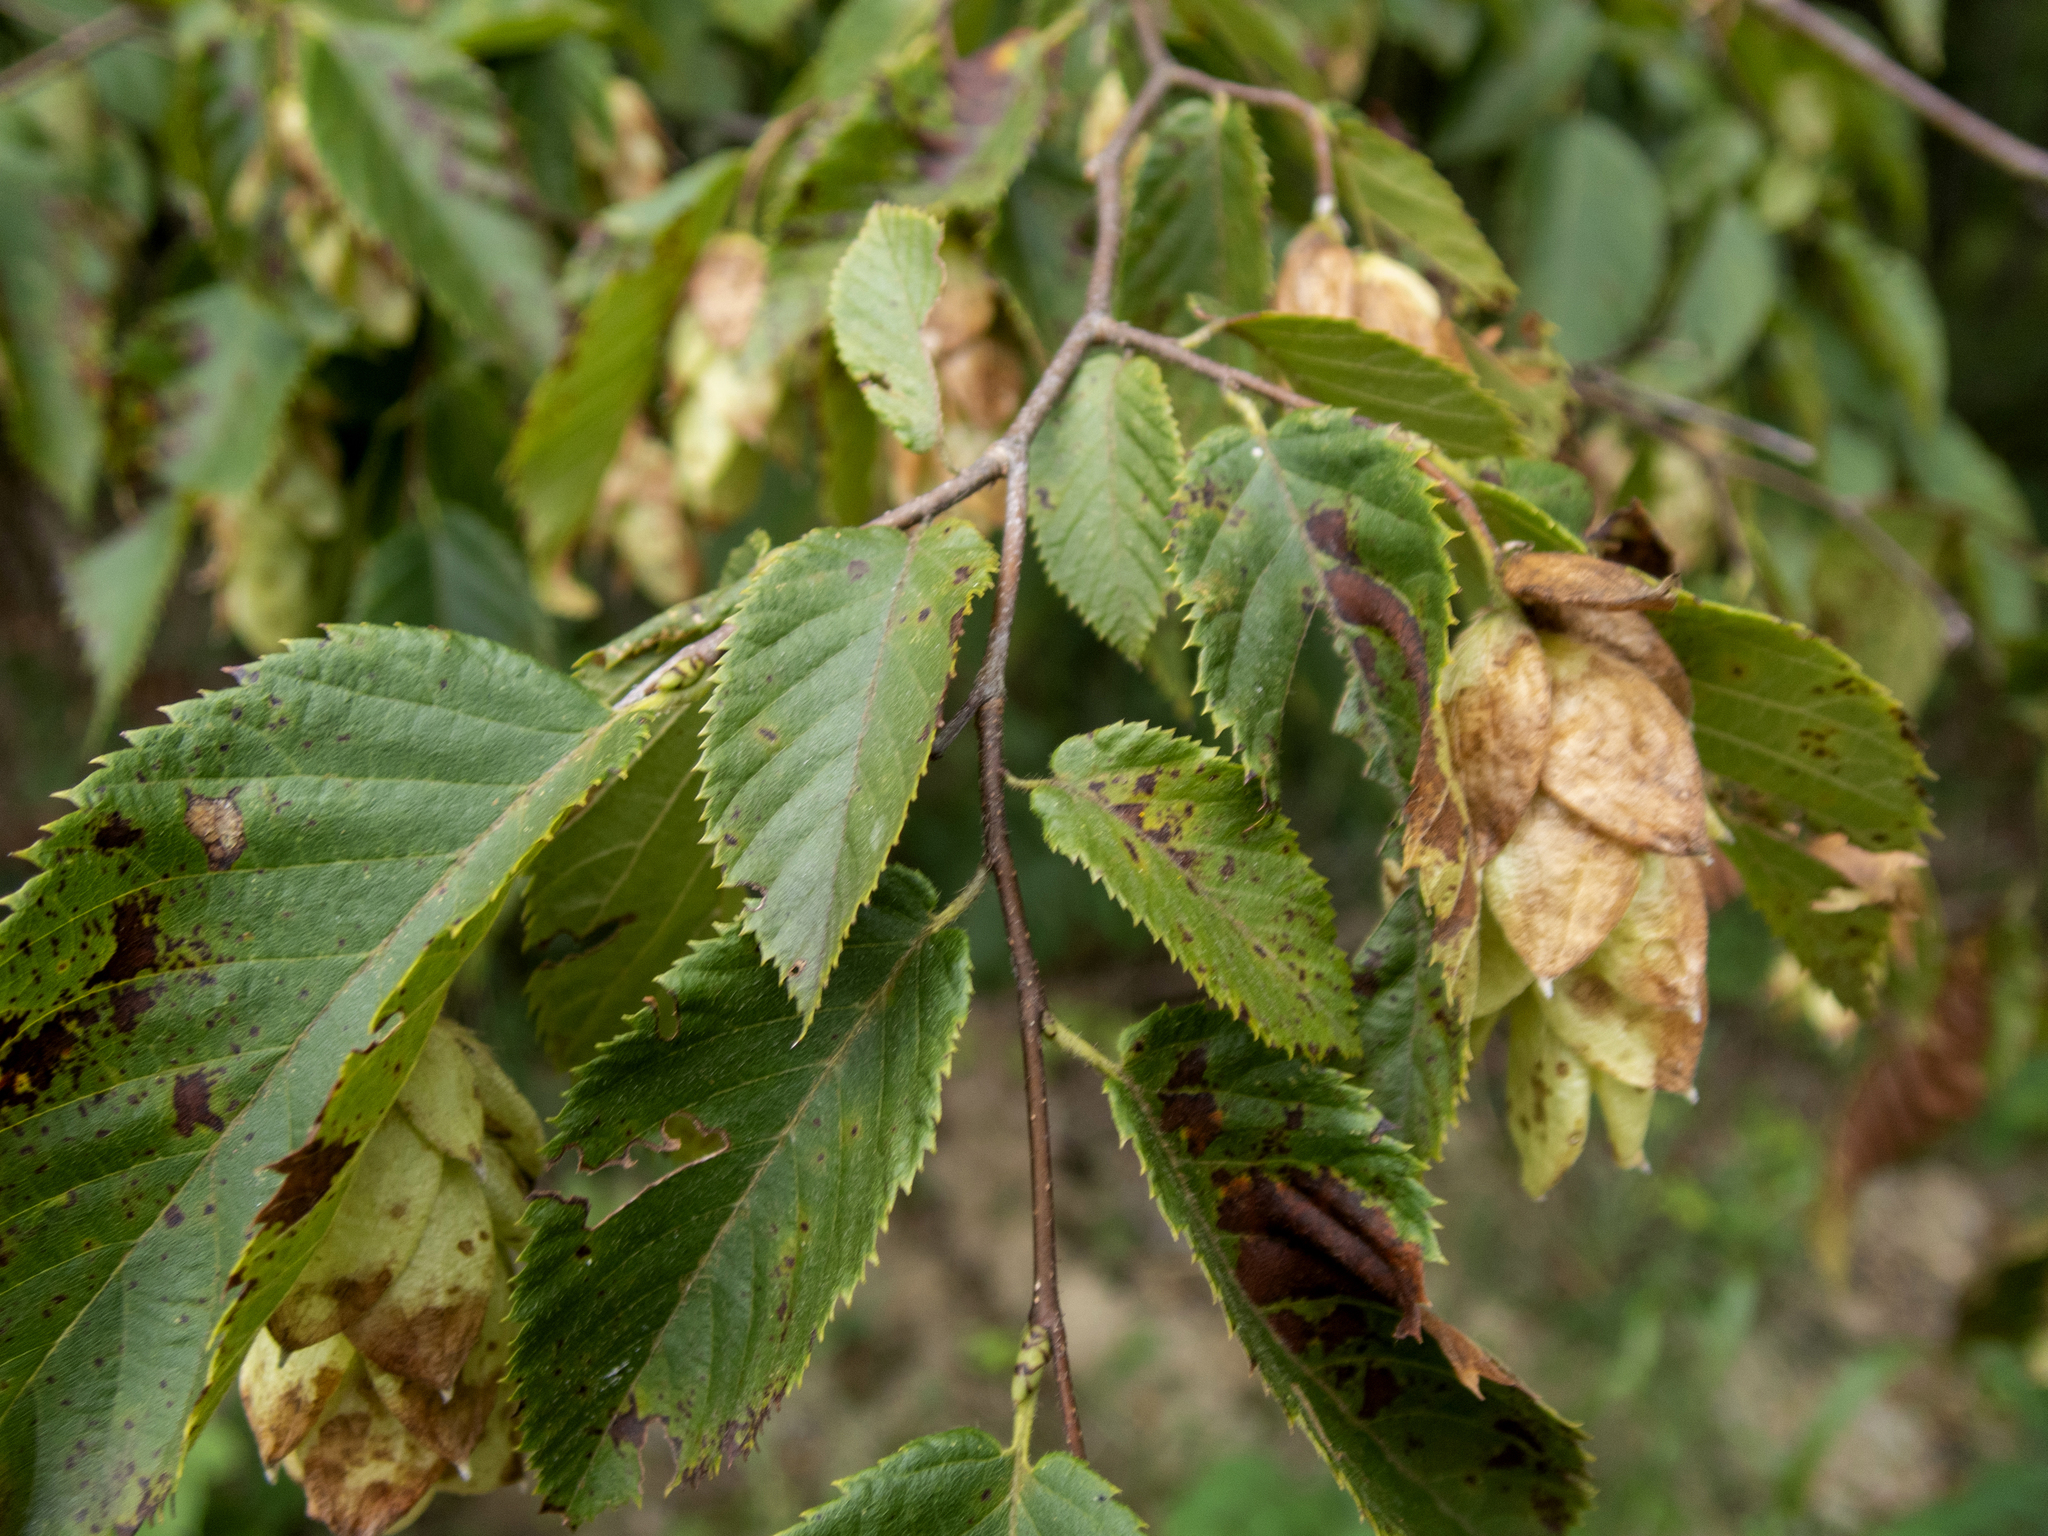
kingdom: Plantae
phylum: Tracheophyta
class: Magnoliopsida
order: Fagales
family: Betulaceae
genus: Ostrya
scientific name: Ostrya virginiana
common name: Ironwood
